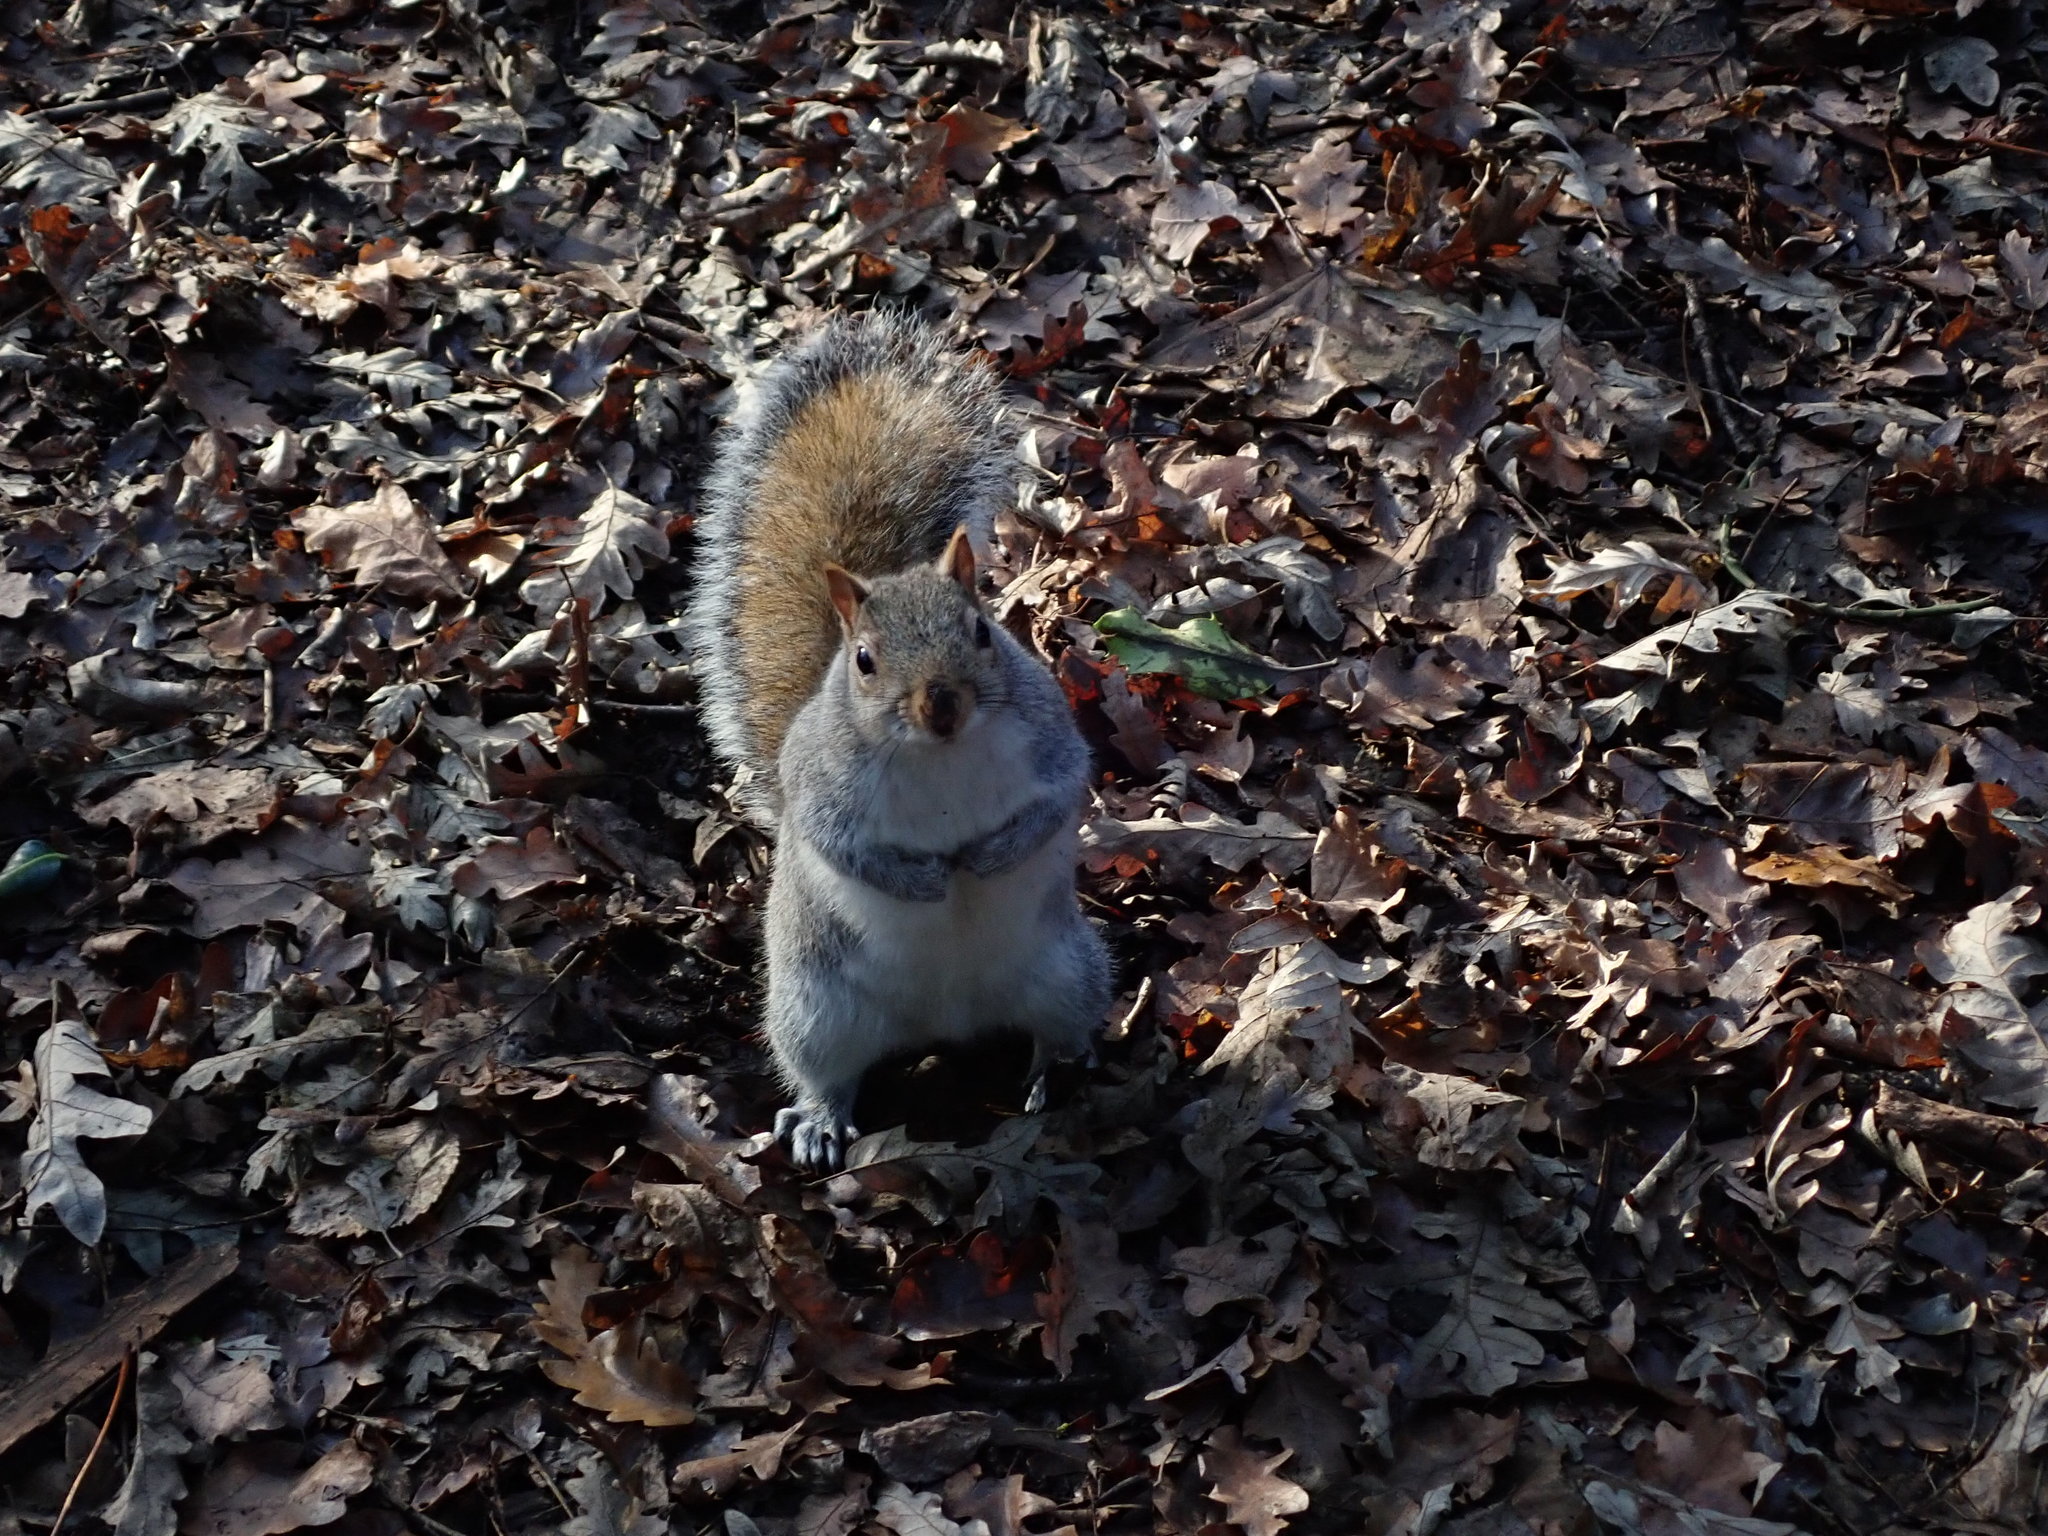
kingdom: Animalia
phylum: Chordata
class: Mammalia
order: Rodentia
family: Sciuridae
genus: Sciurus
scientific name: Sciurus carolinensis
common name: Eastern gray squirrel
